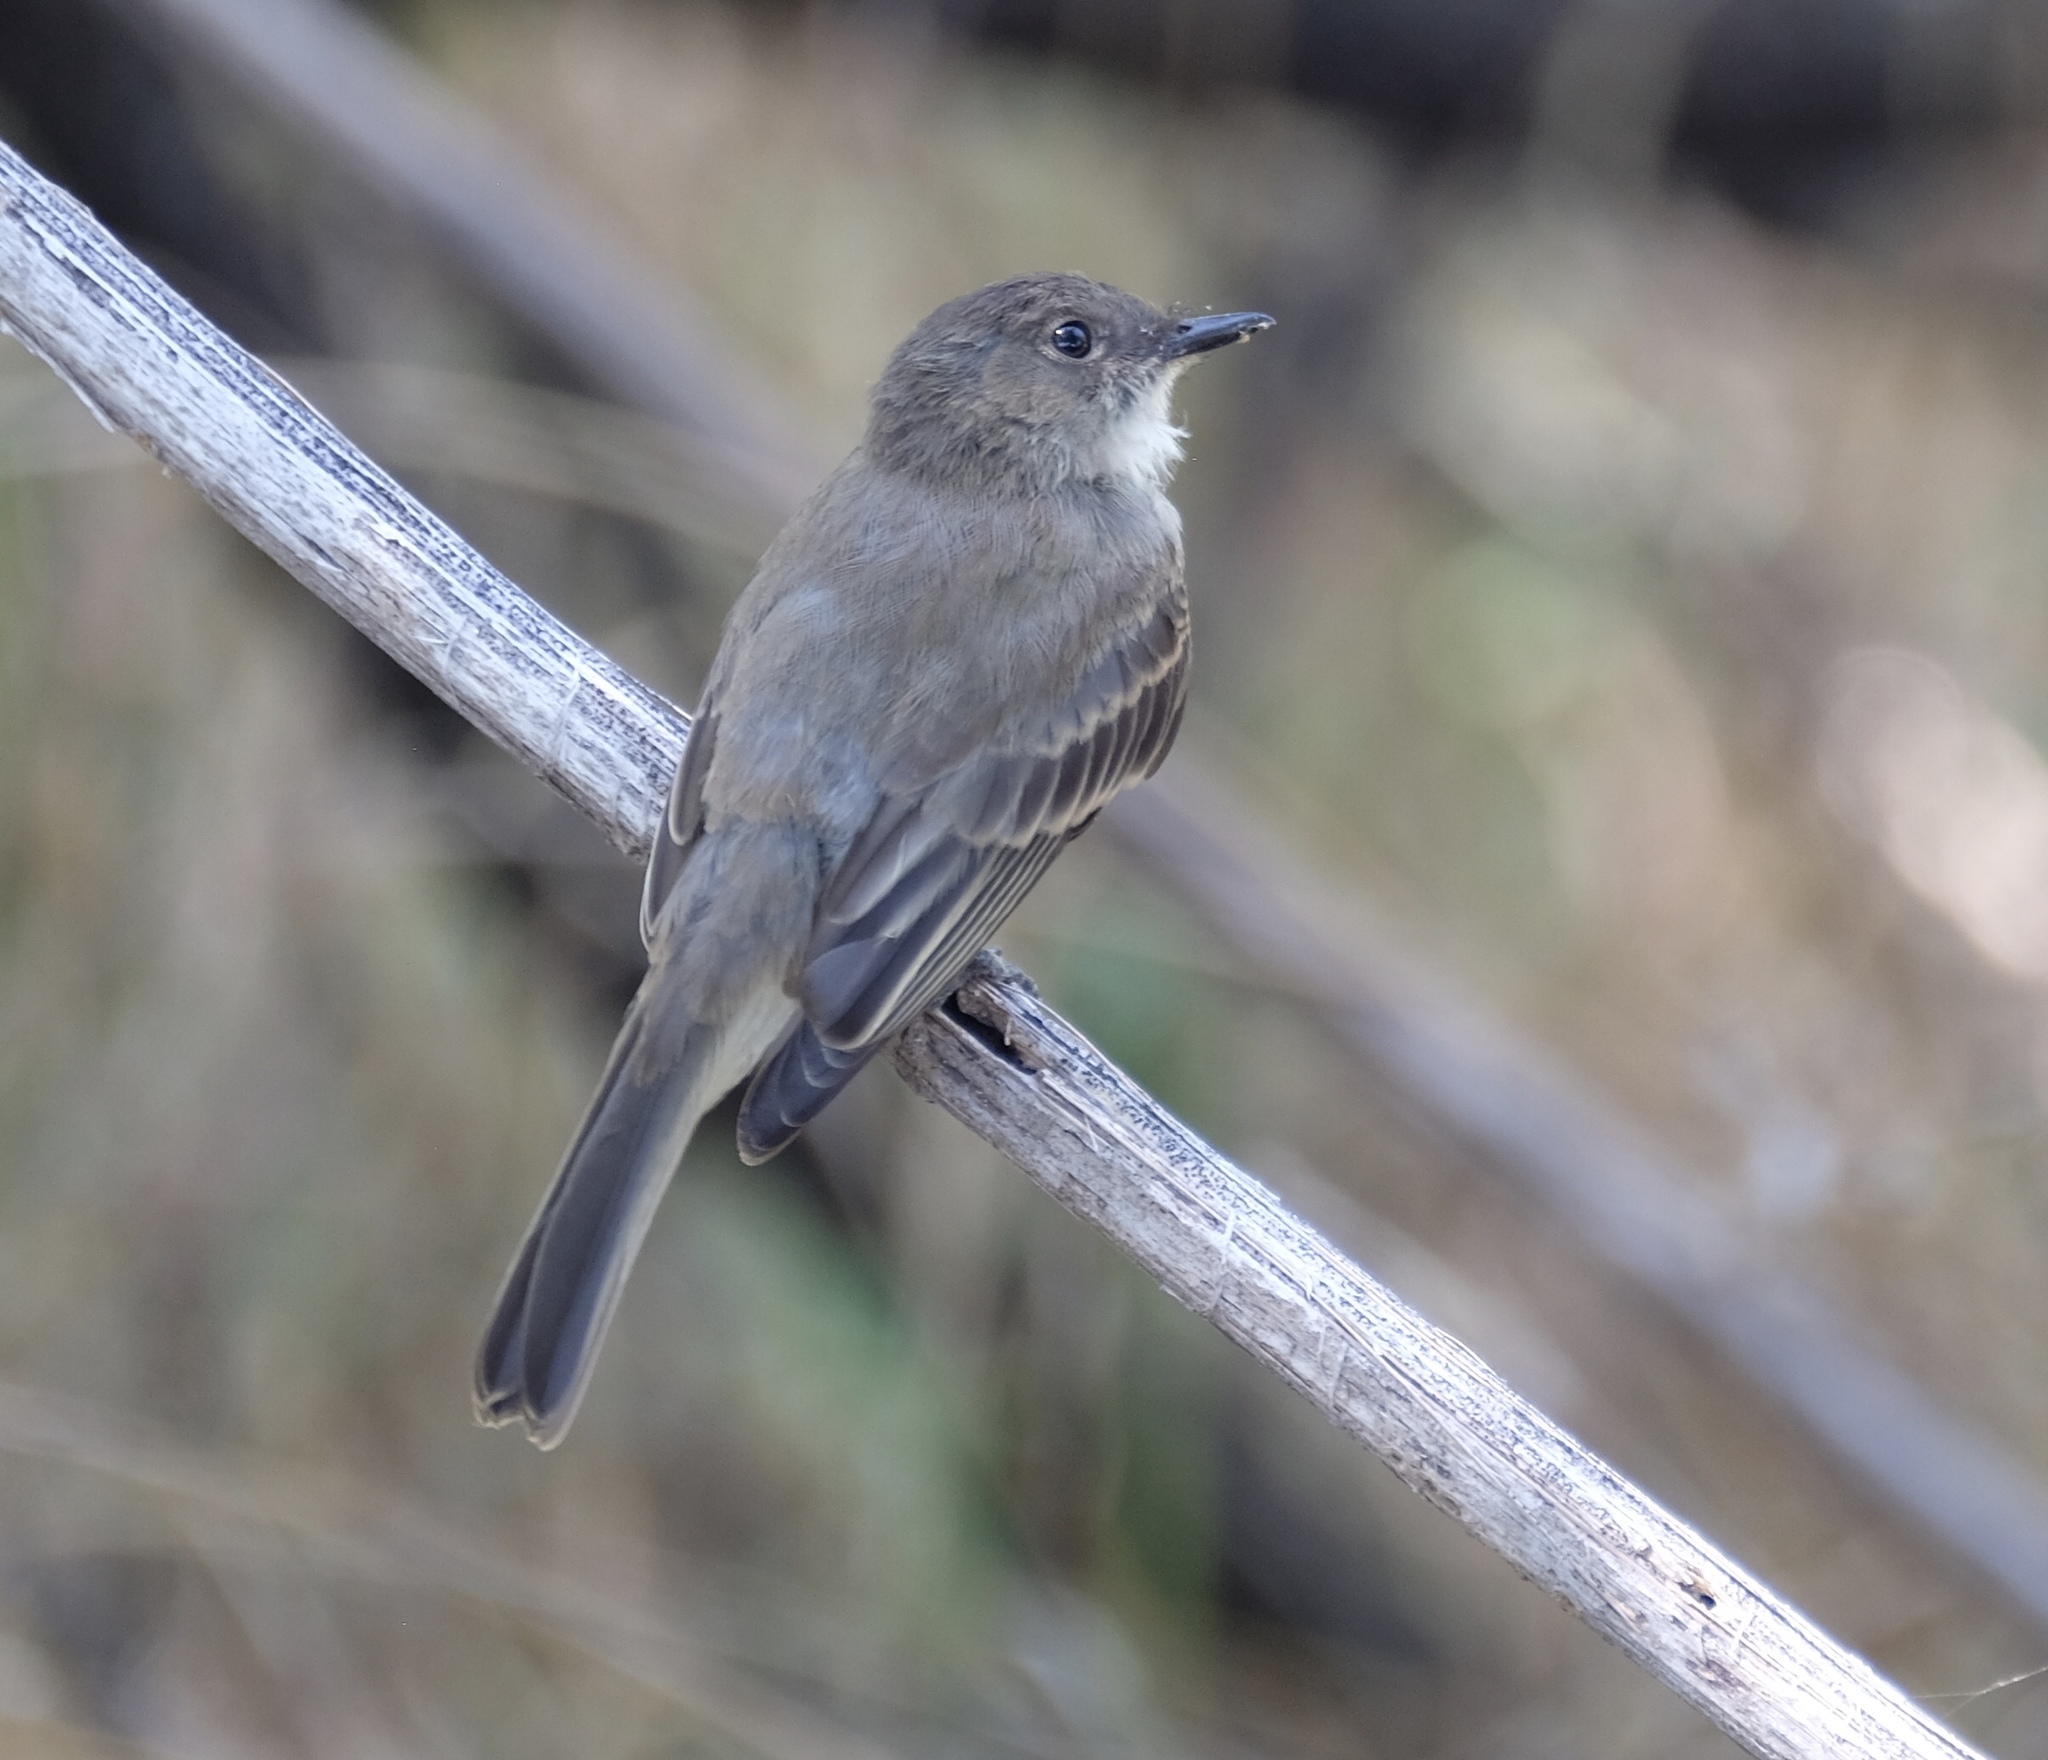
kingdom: Animalia
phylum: Chordata
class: Aves
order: Passeriformes
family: Tyrannidae
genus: Sayornis
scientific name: Sayornis phoebe
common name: Eastern phoebe
